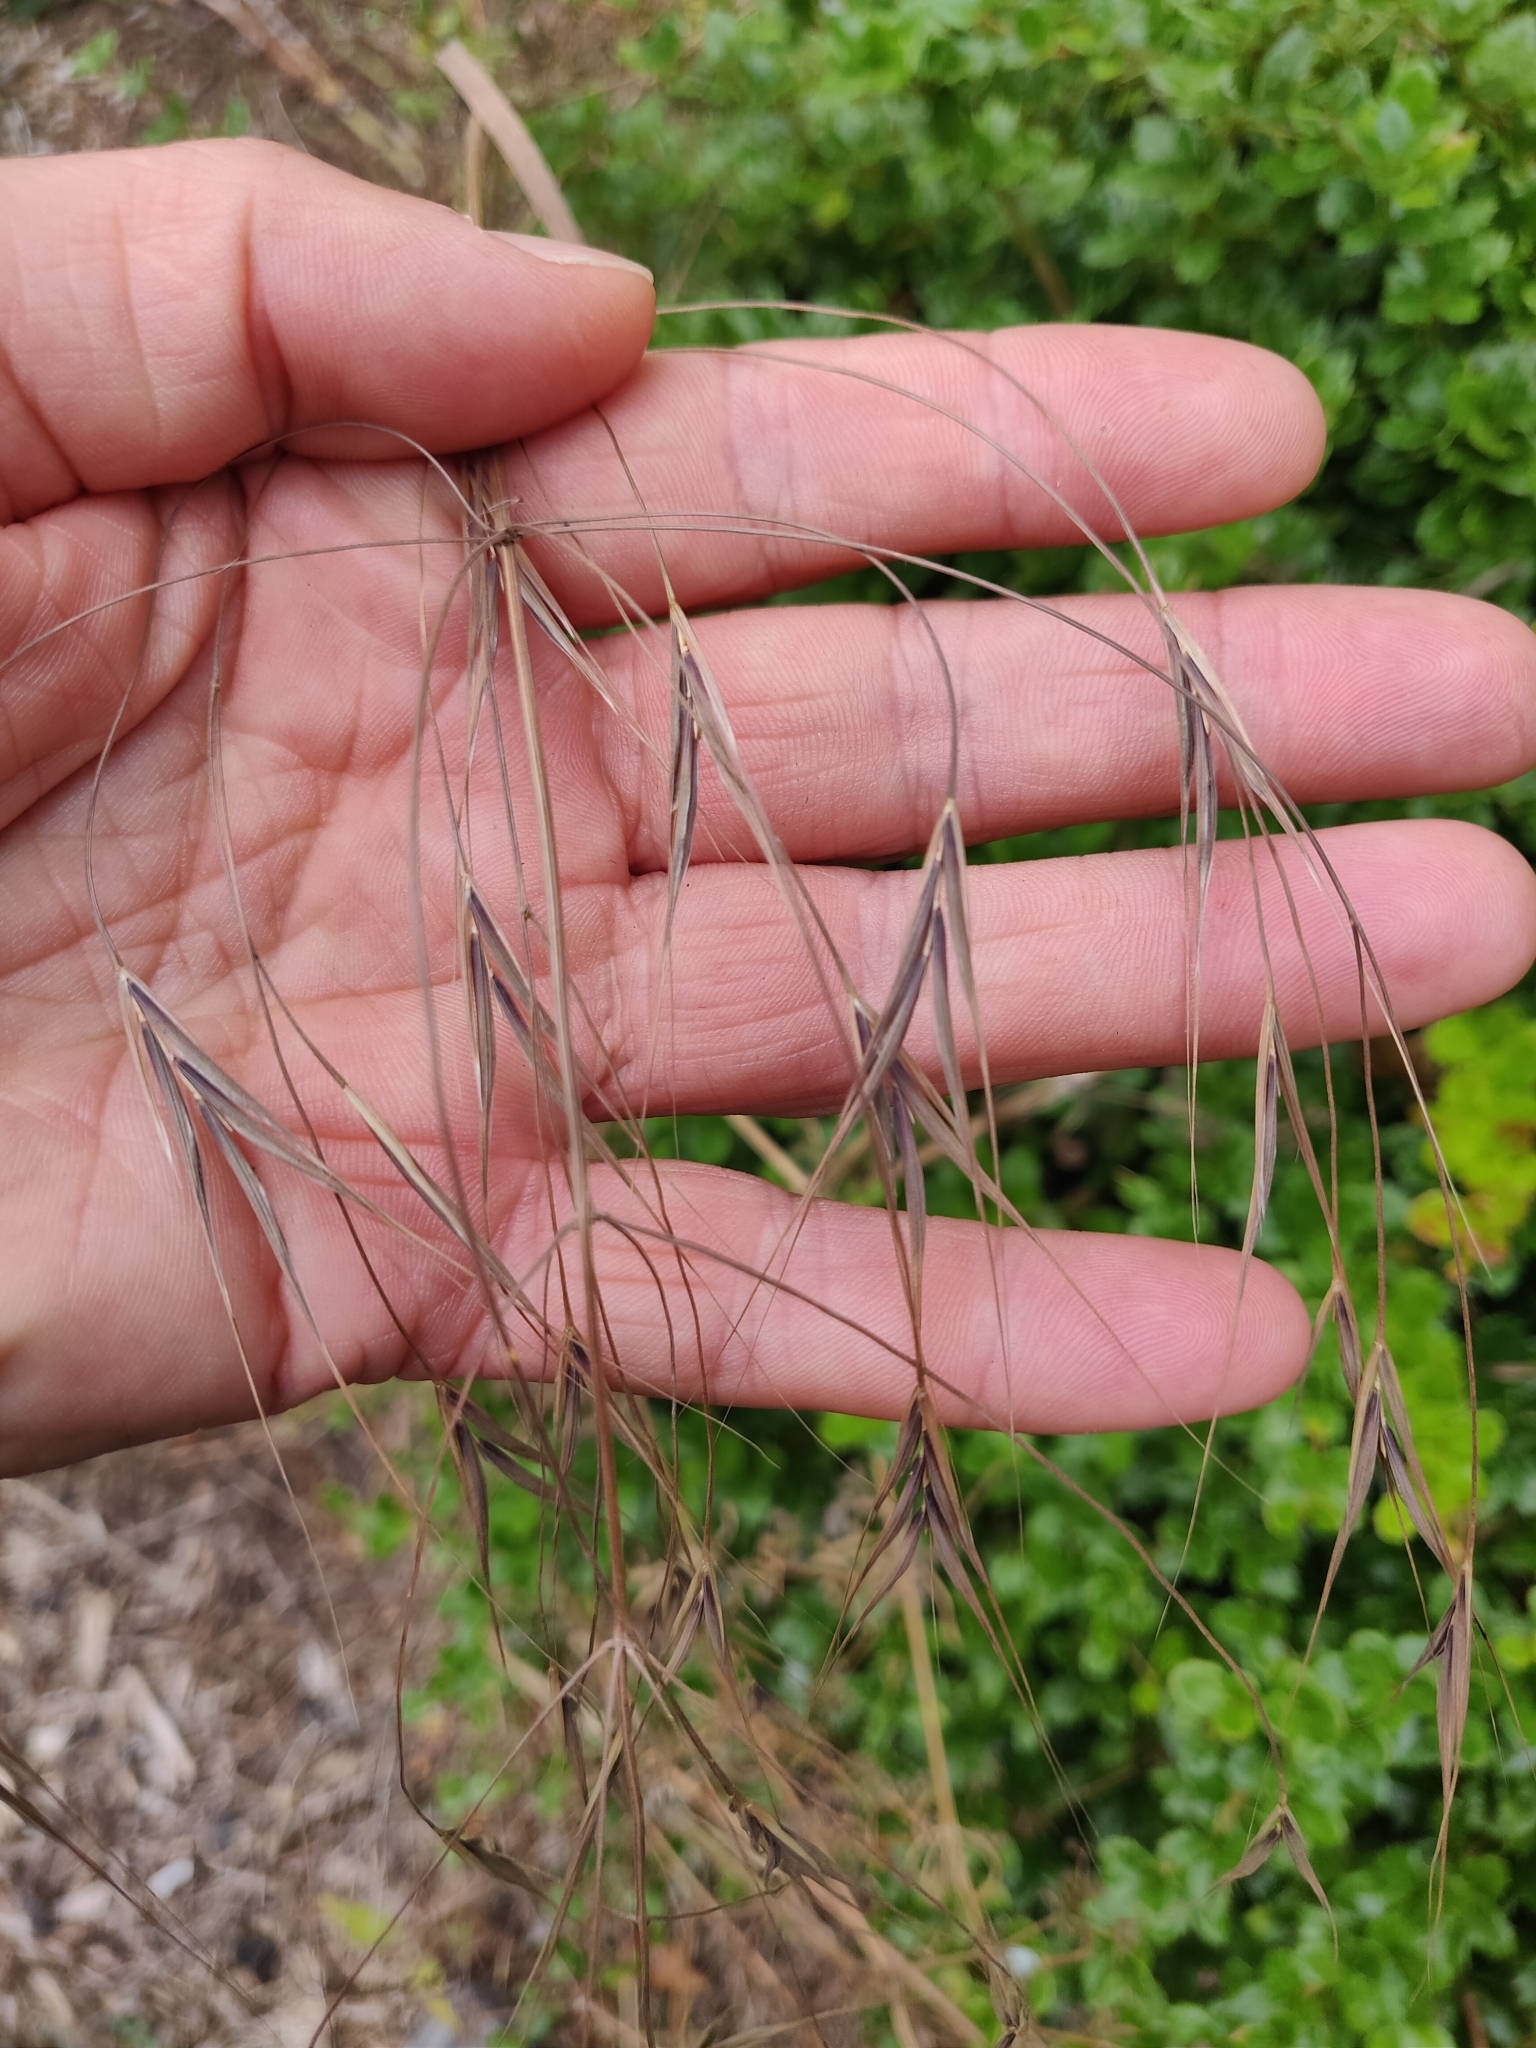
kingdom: Plantae
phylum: Tracheophyta
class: Liliopsida
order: Poales
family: Poaceae
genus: Bromus
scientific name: Bromus sterilis
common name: Poverty brome
